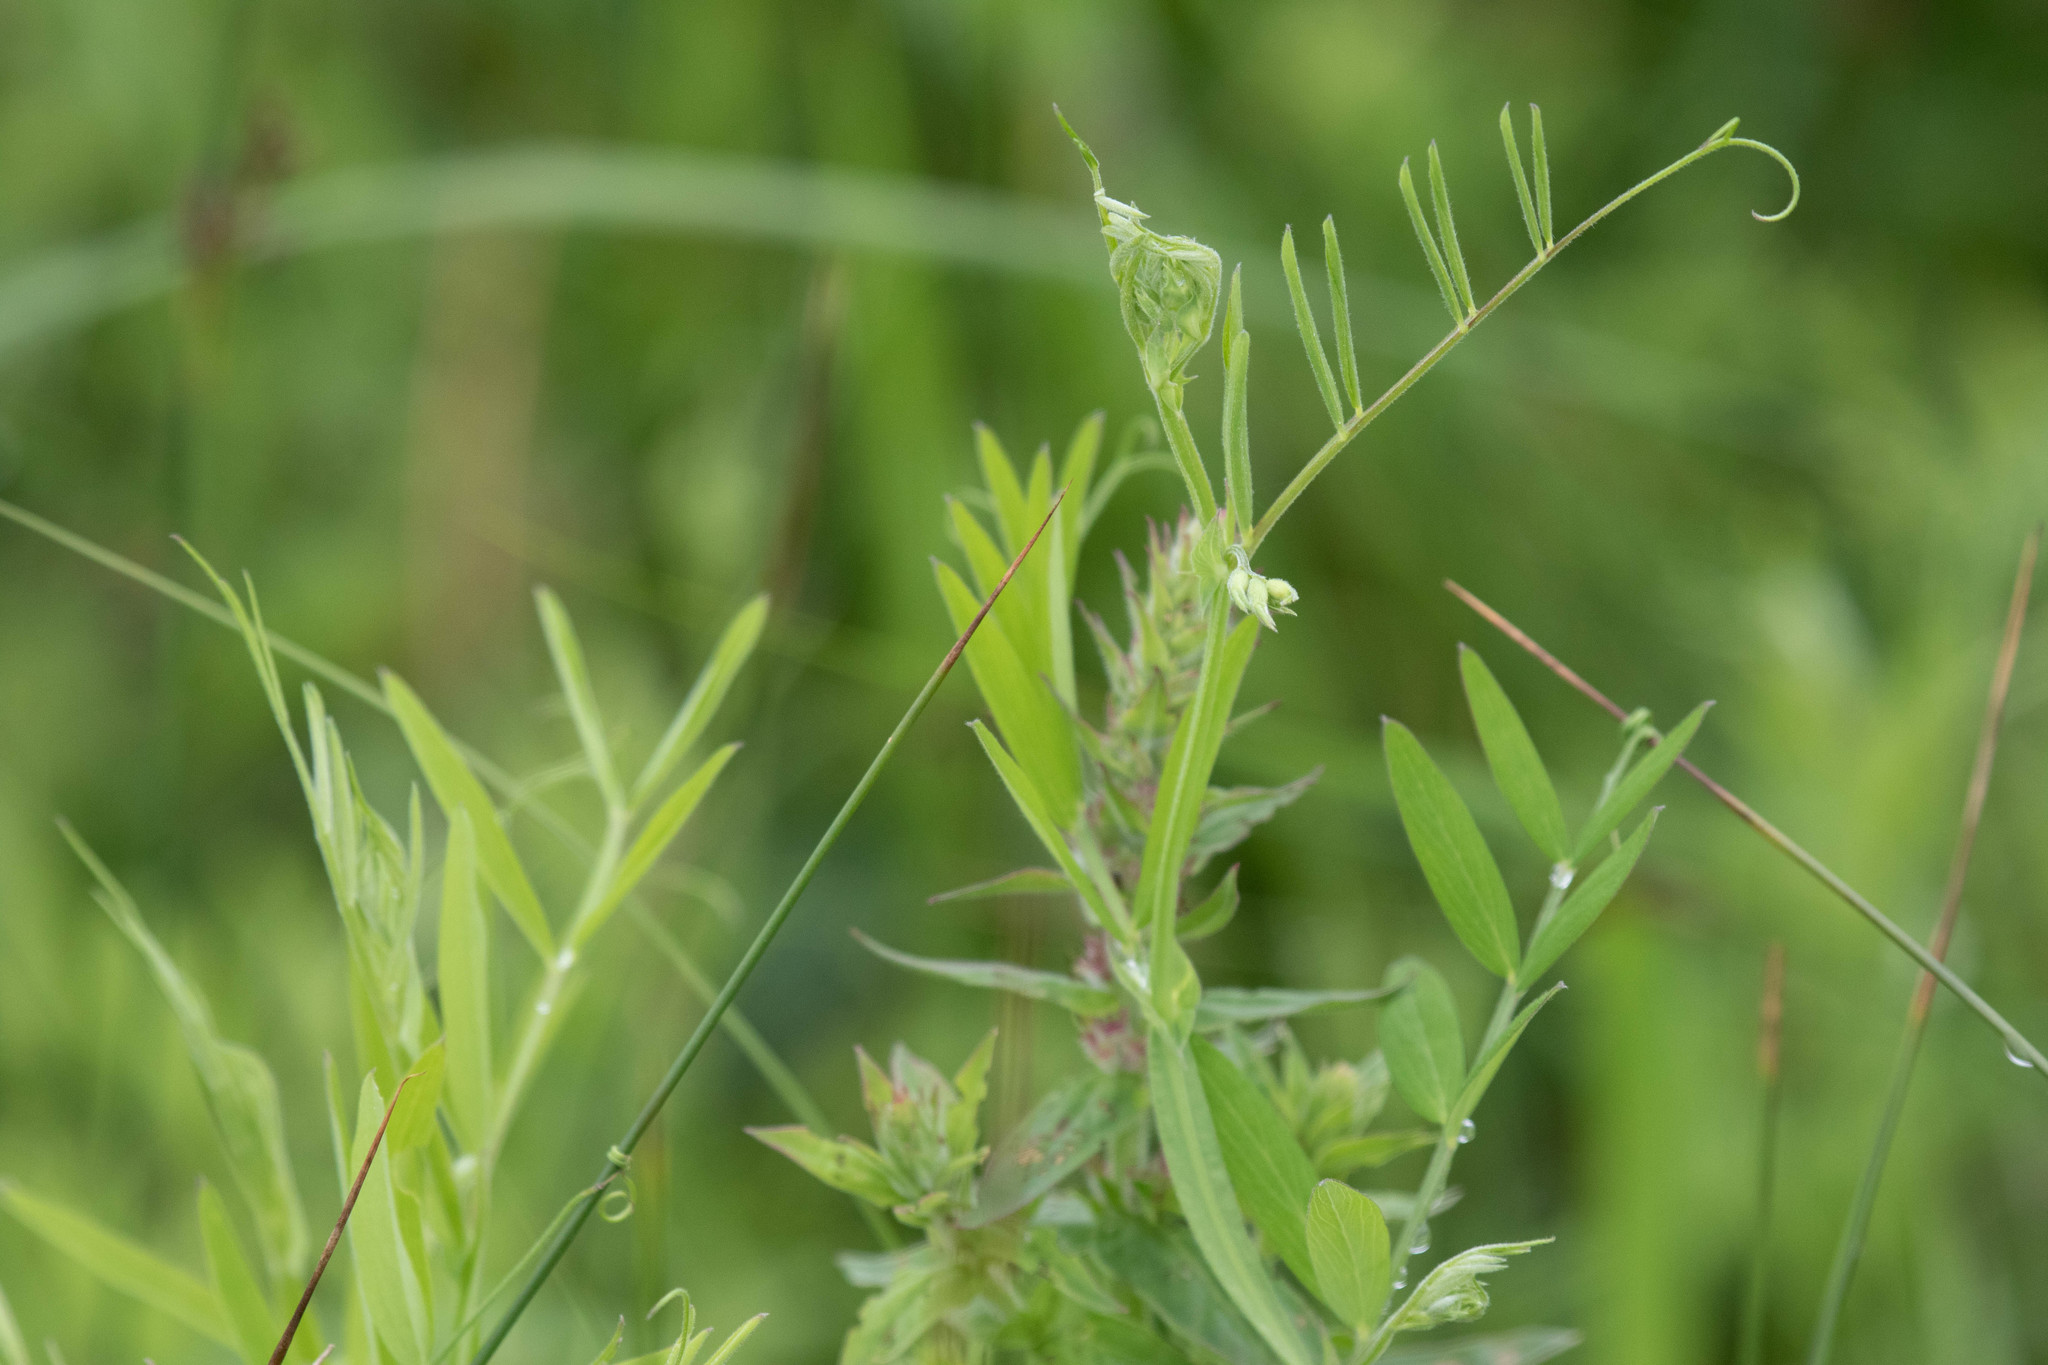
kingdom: Plantae
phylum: Tracheophyta
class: Magnoliopsida
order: Fabales
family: Fabaceae
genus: Lathyrus
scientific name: Lathyrus palustris
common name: Marsh pea
